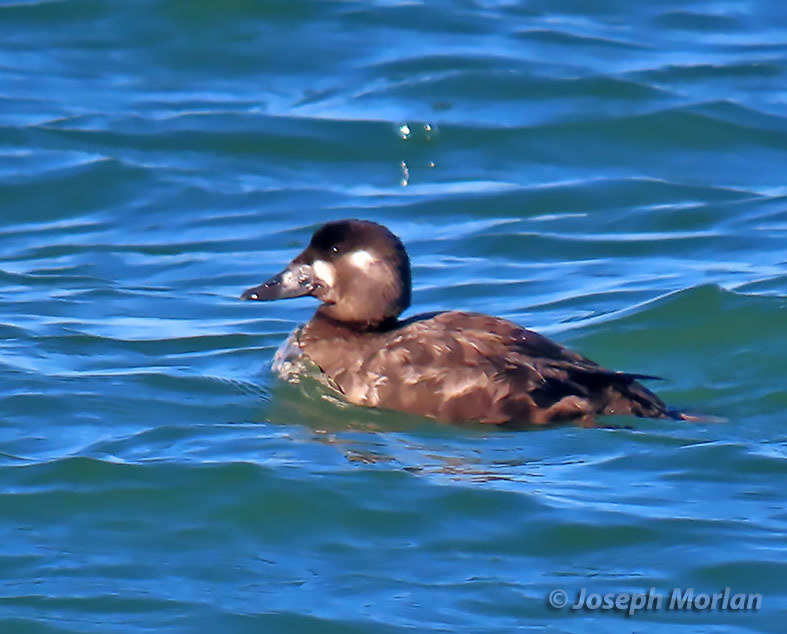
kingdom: Animalia
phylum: Chordata
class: Aves
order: Anseriformes
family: Anatidae
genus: Melanitta
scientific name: Melanitta perspicillata
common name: Surf scoter
